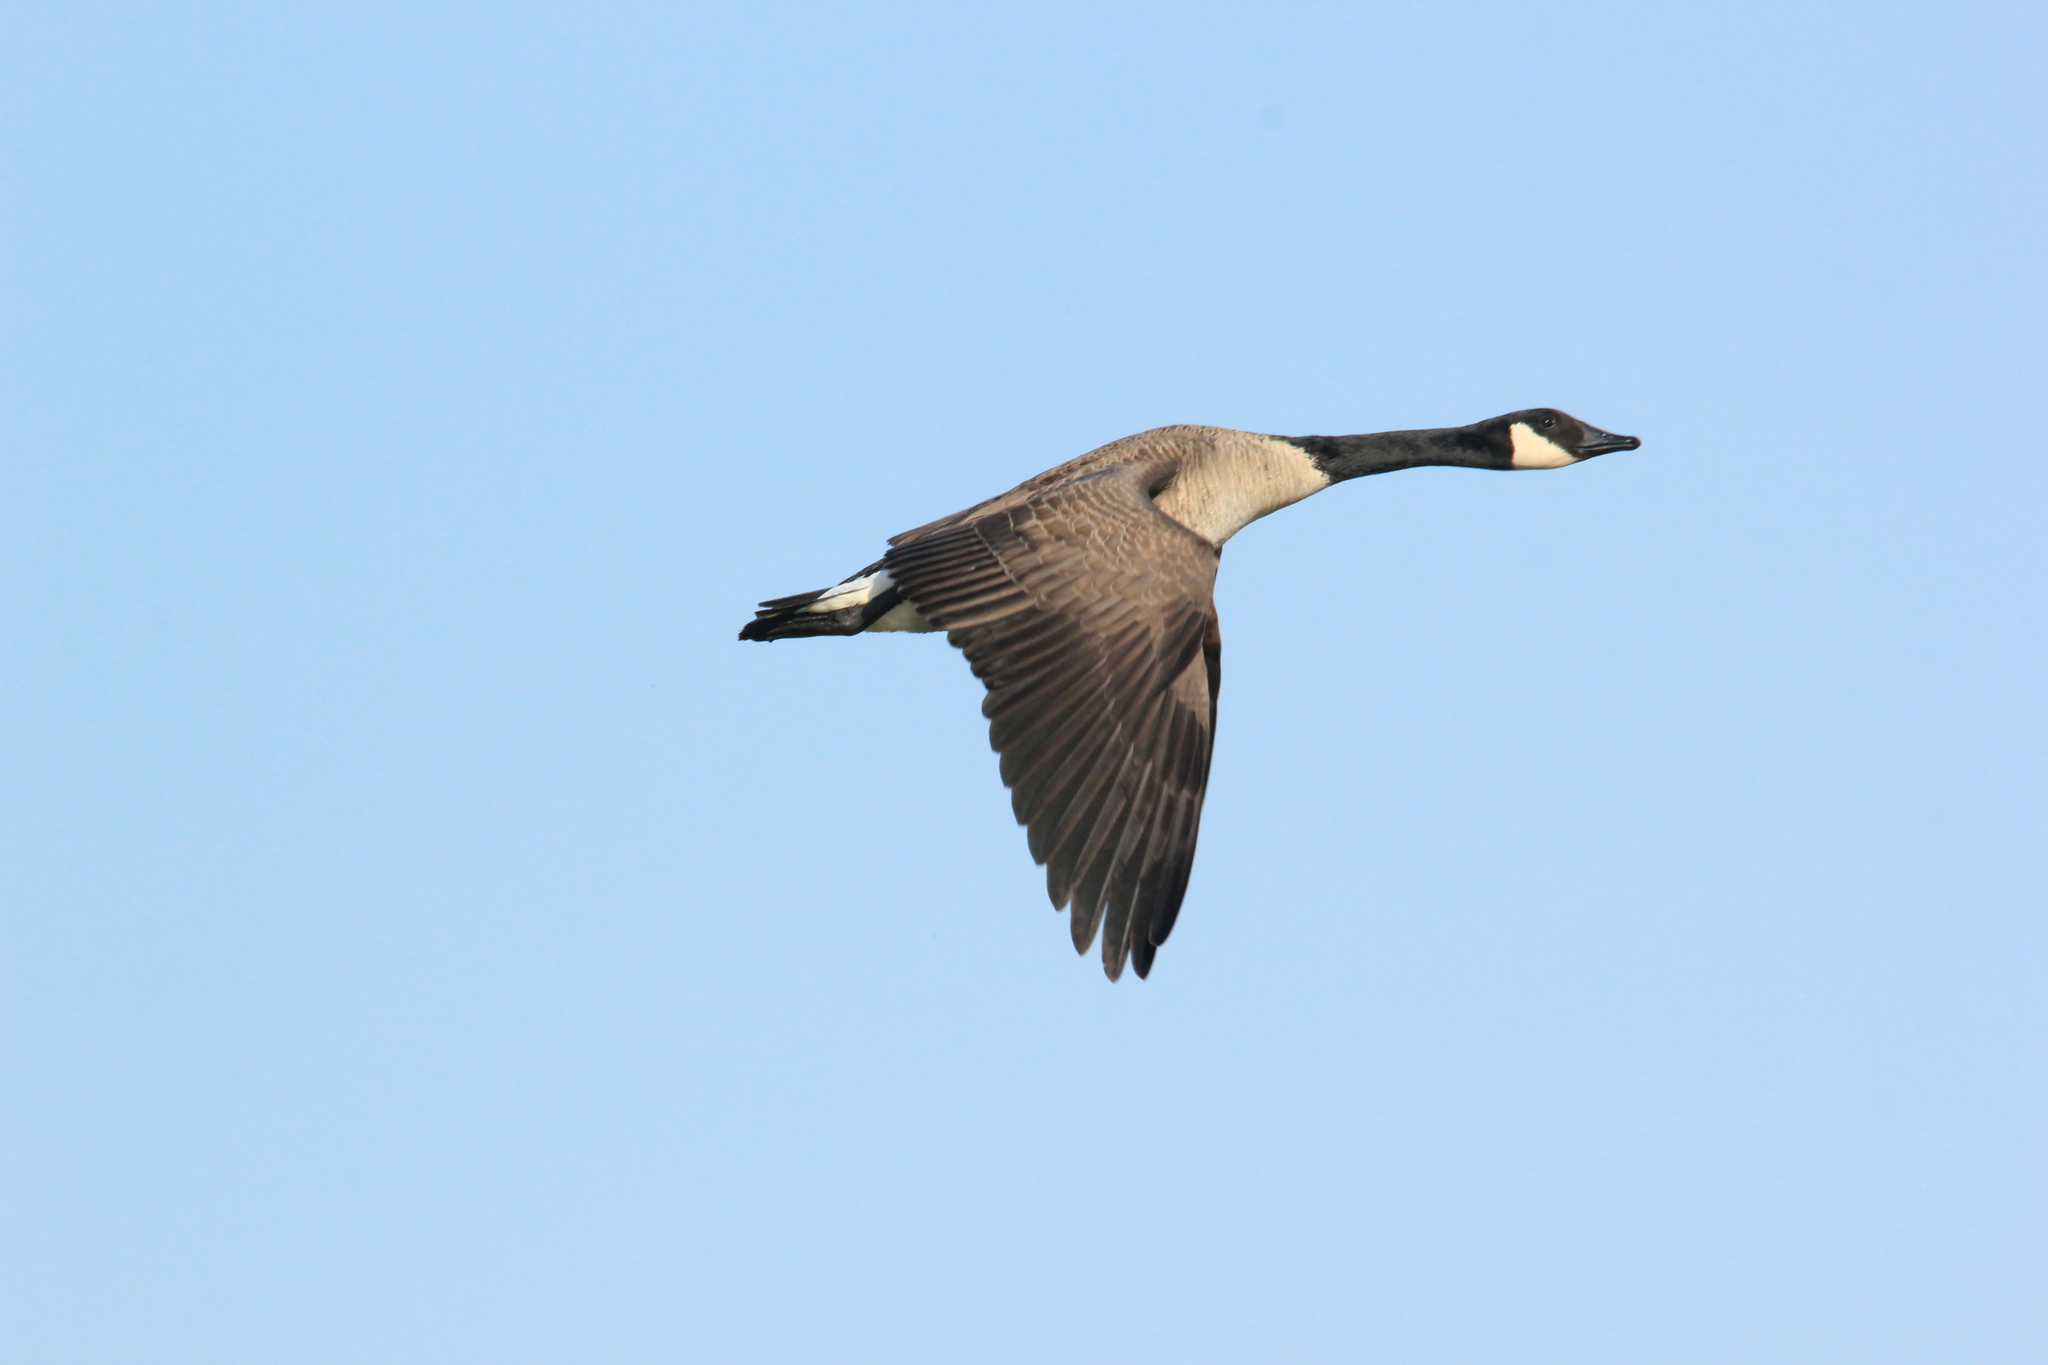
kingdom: Animalia
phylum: Chordata
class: Aves
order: Anseriformes
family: Anatidae
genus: Branta
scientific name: Branta canadensis
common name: Canada goose
